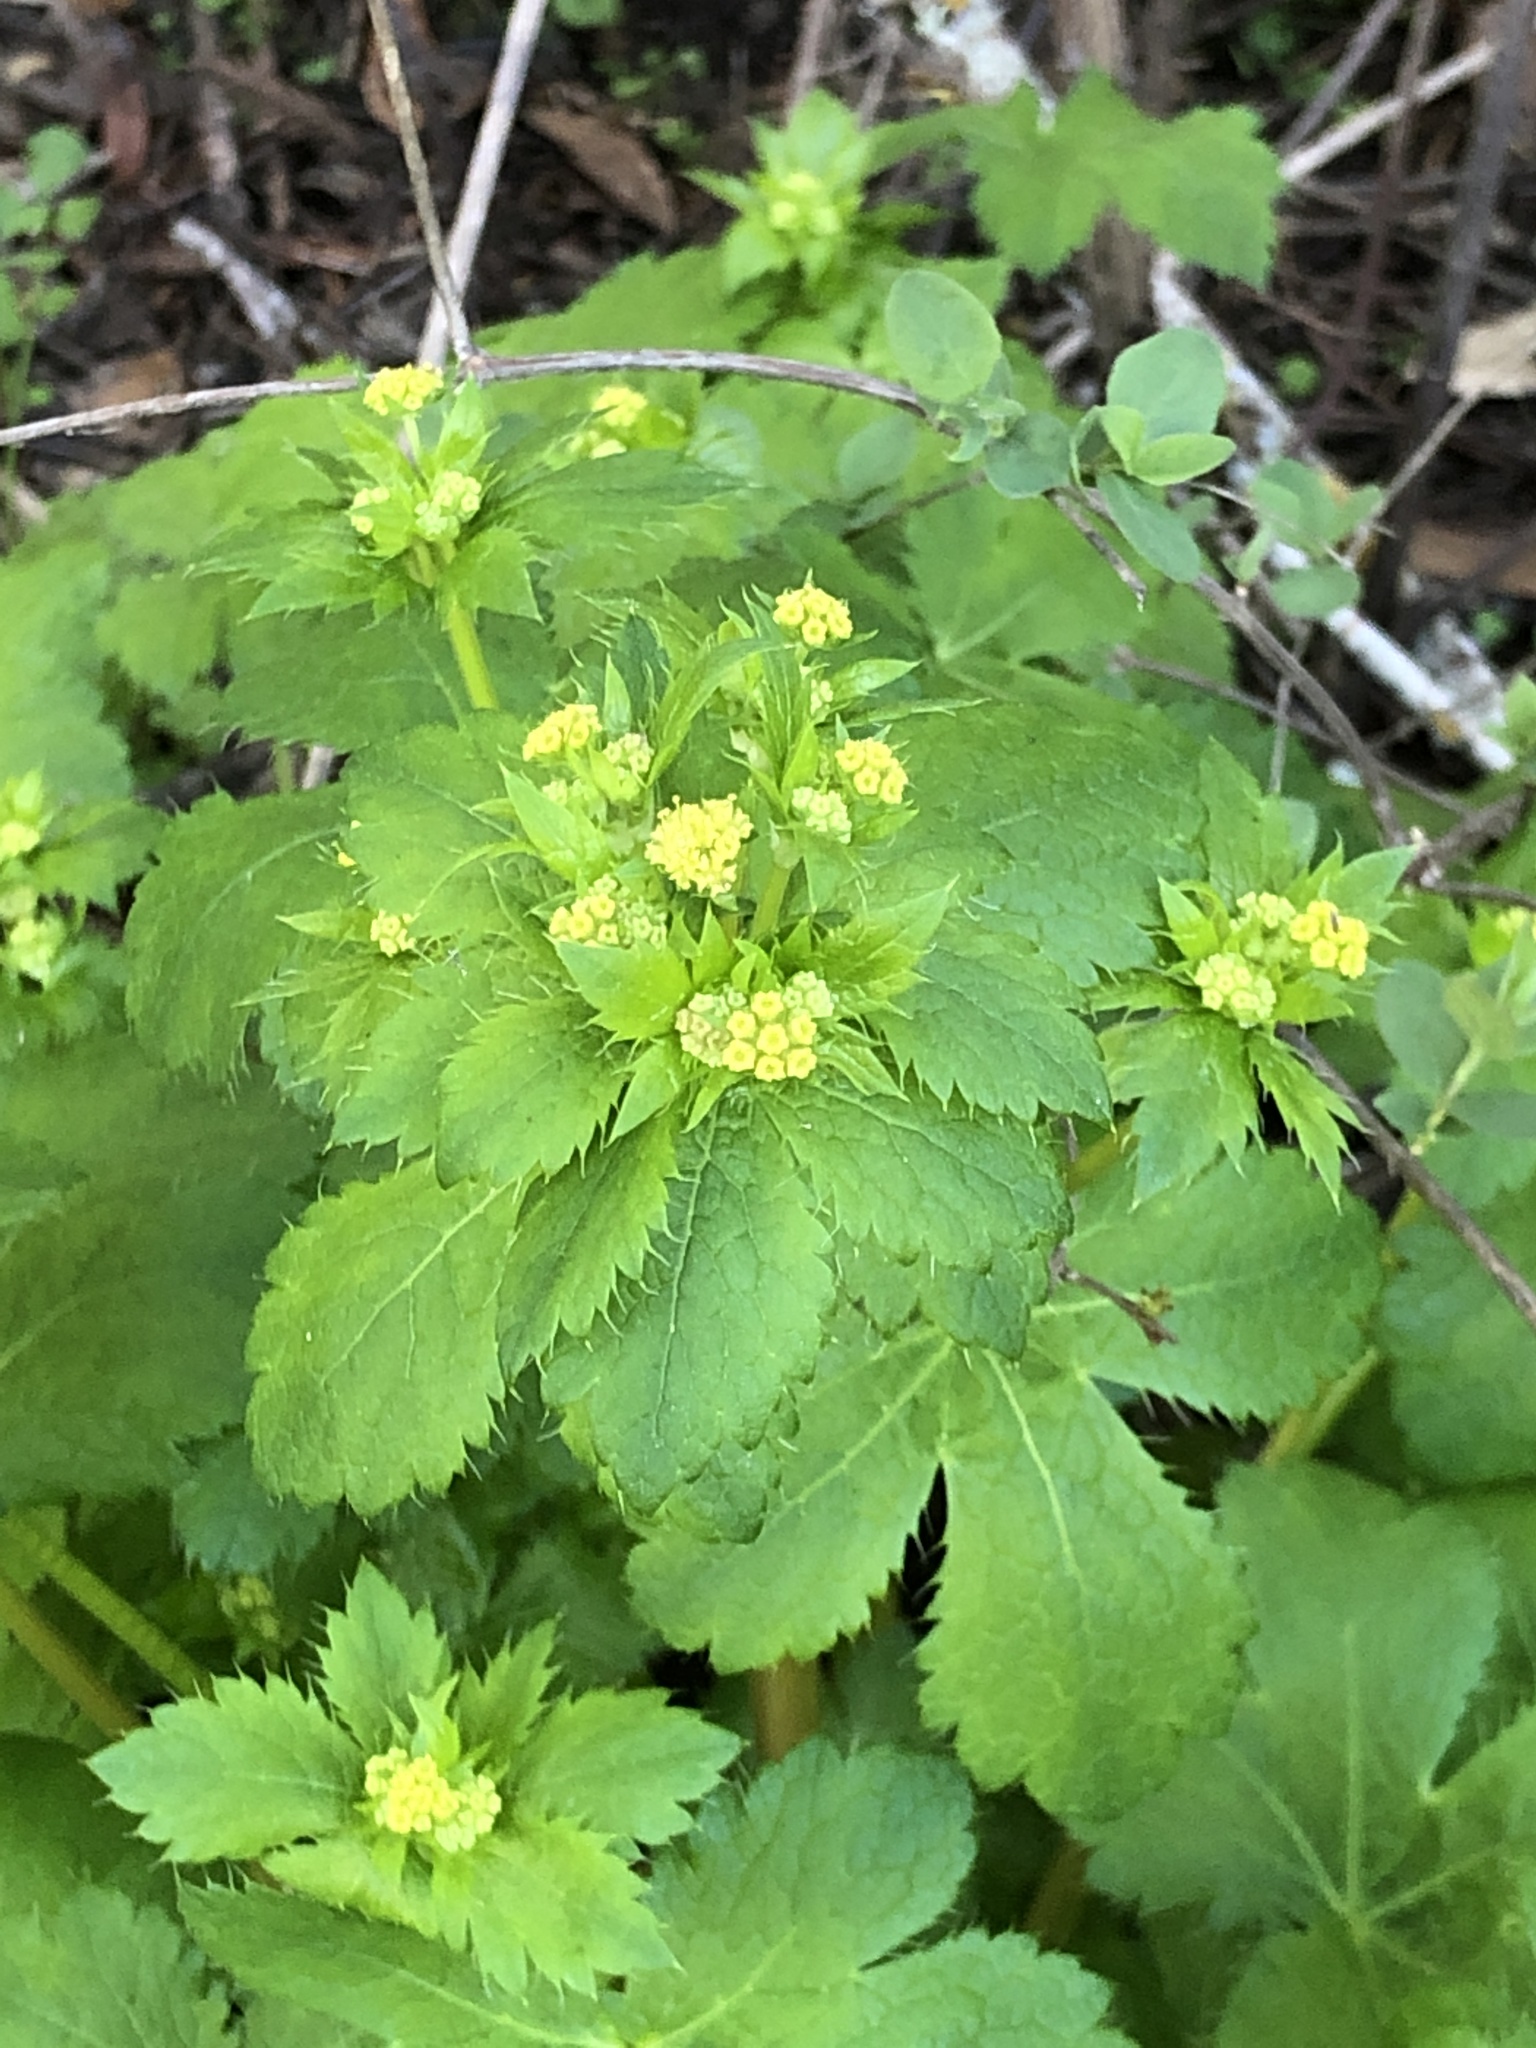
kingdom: Plantae
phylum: Tracheophyta
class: Magnoliopsida
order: Apiales
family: Apiaceae
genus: Sanicula
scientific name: Sanicula crassicaulis
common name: Western snakeroot
